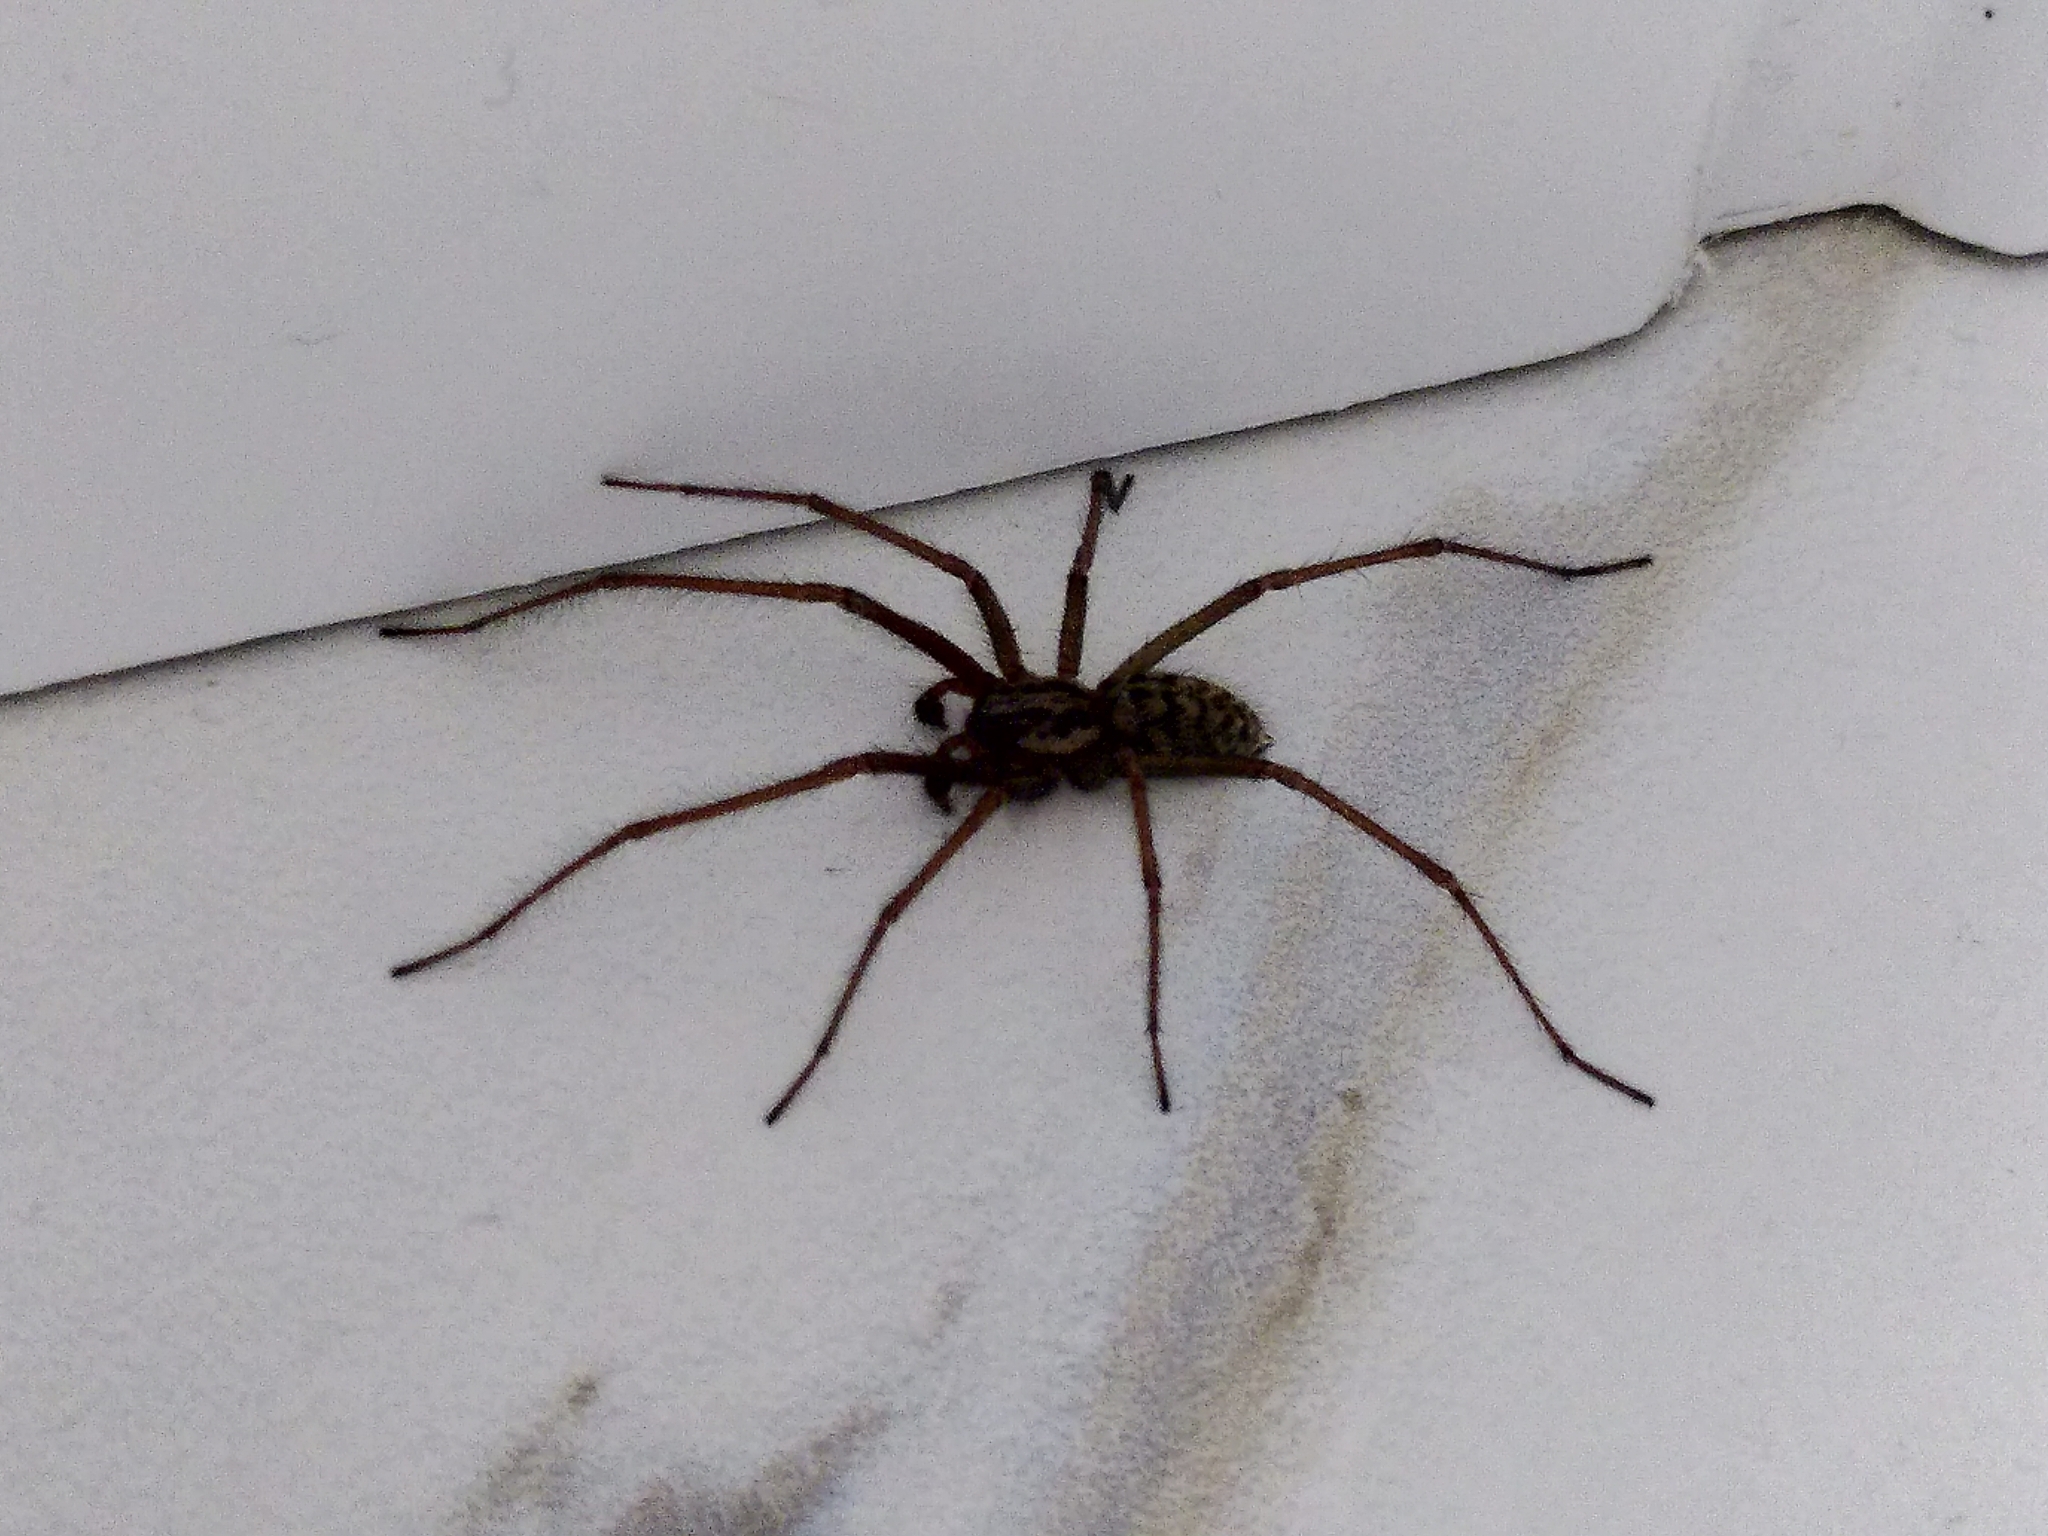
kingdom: Animalia
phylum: Arthropoda
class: Arachnida
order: Araneae
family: Agelenidae
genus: Eratigena
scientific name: Eratigena
